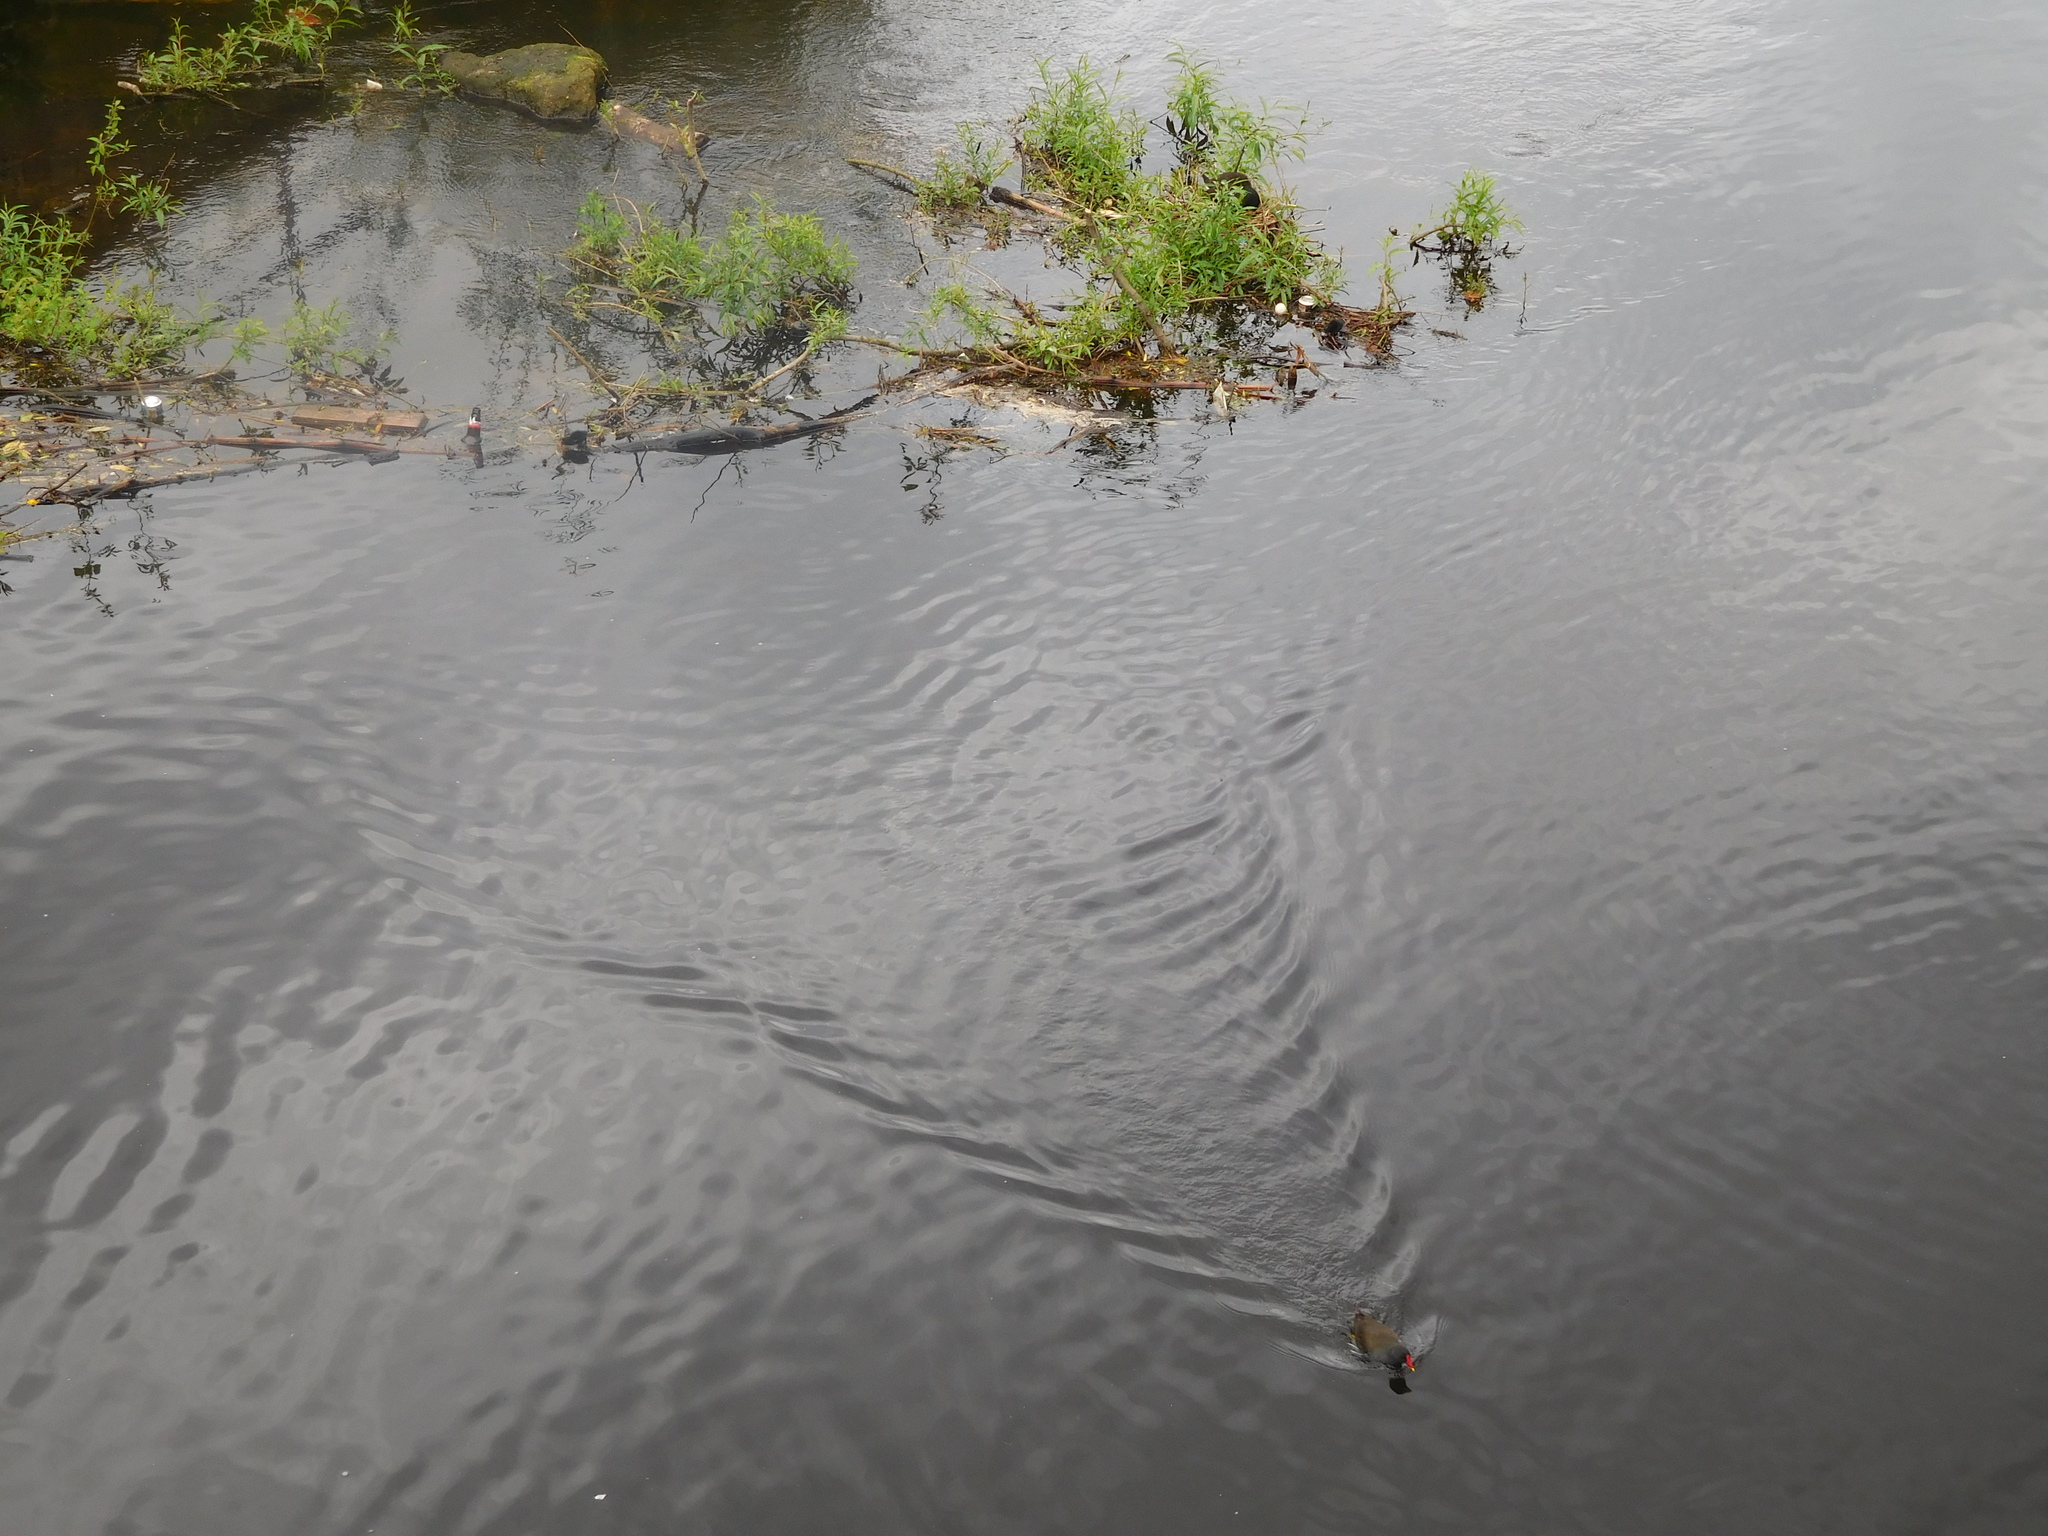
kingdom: Animalia
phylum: Chordata
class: Aves
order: Gruiformes
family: Rallidae
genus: Gallinula
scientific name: Gallinula chloropus
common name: Common moorhen
